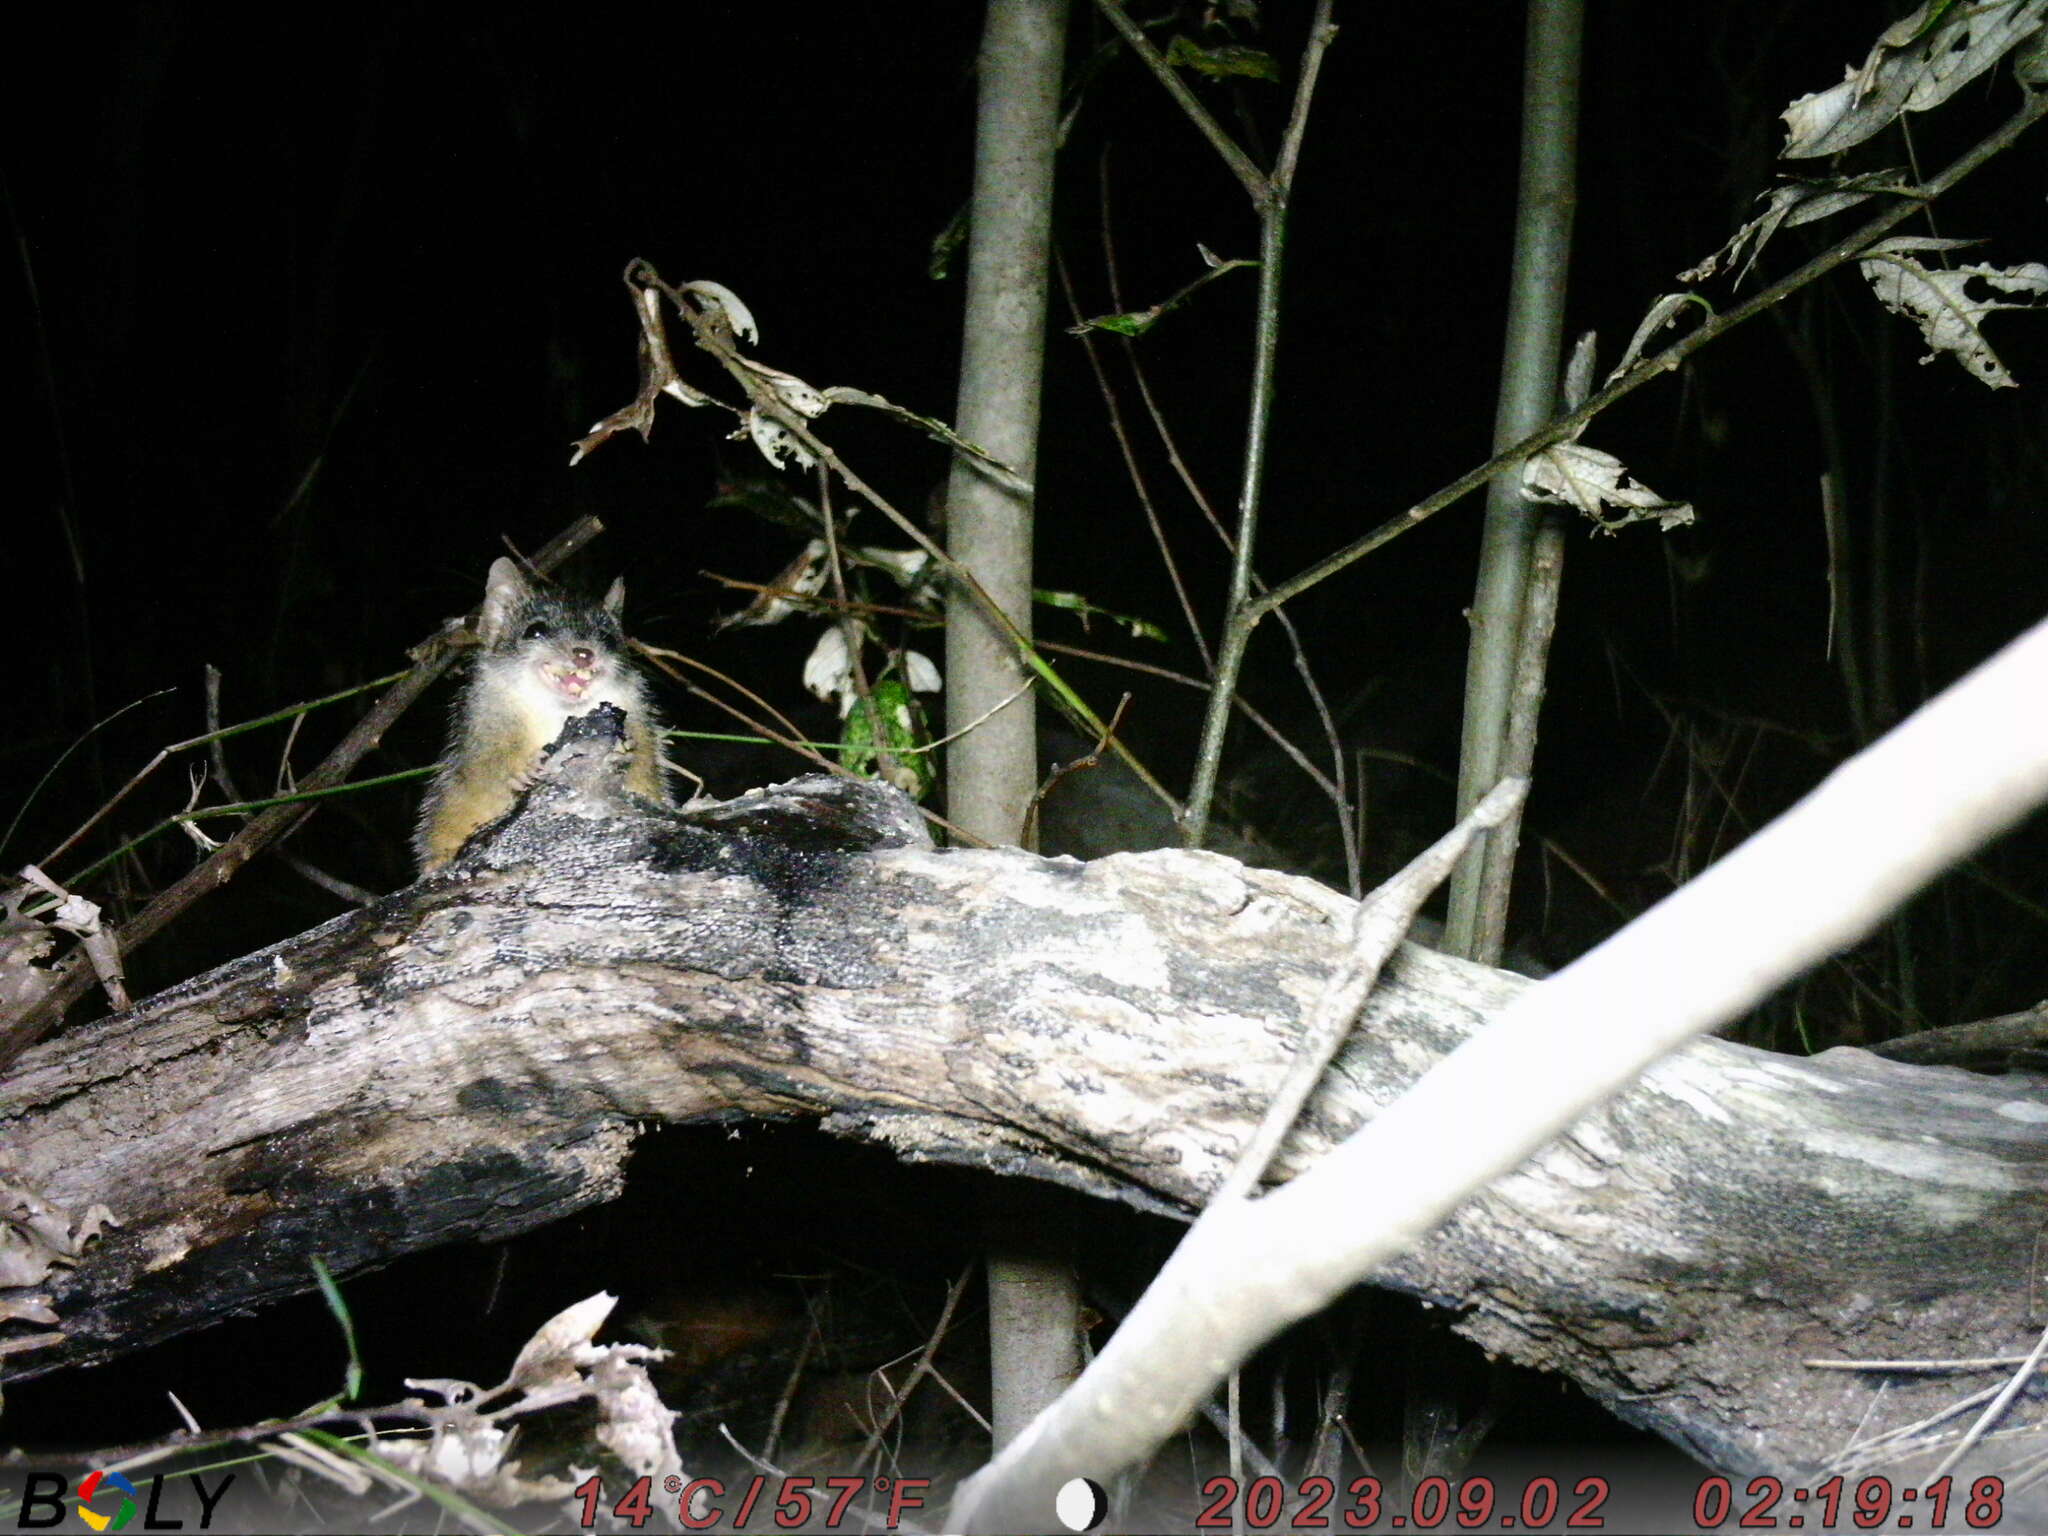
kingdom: Animalia
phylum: Chordata
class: Mammalia
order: Dasyuromorphia
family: Dasyuridae
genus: Antechinus
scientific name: Antechinus flavipes
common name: Yellow-footed antechinus
